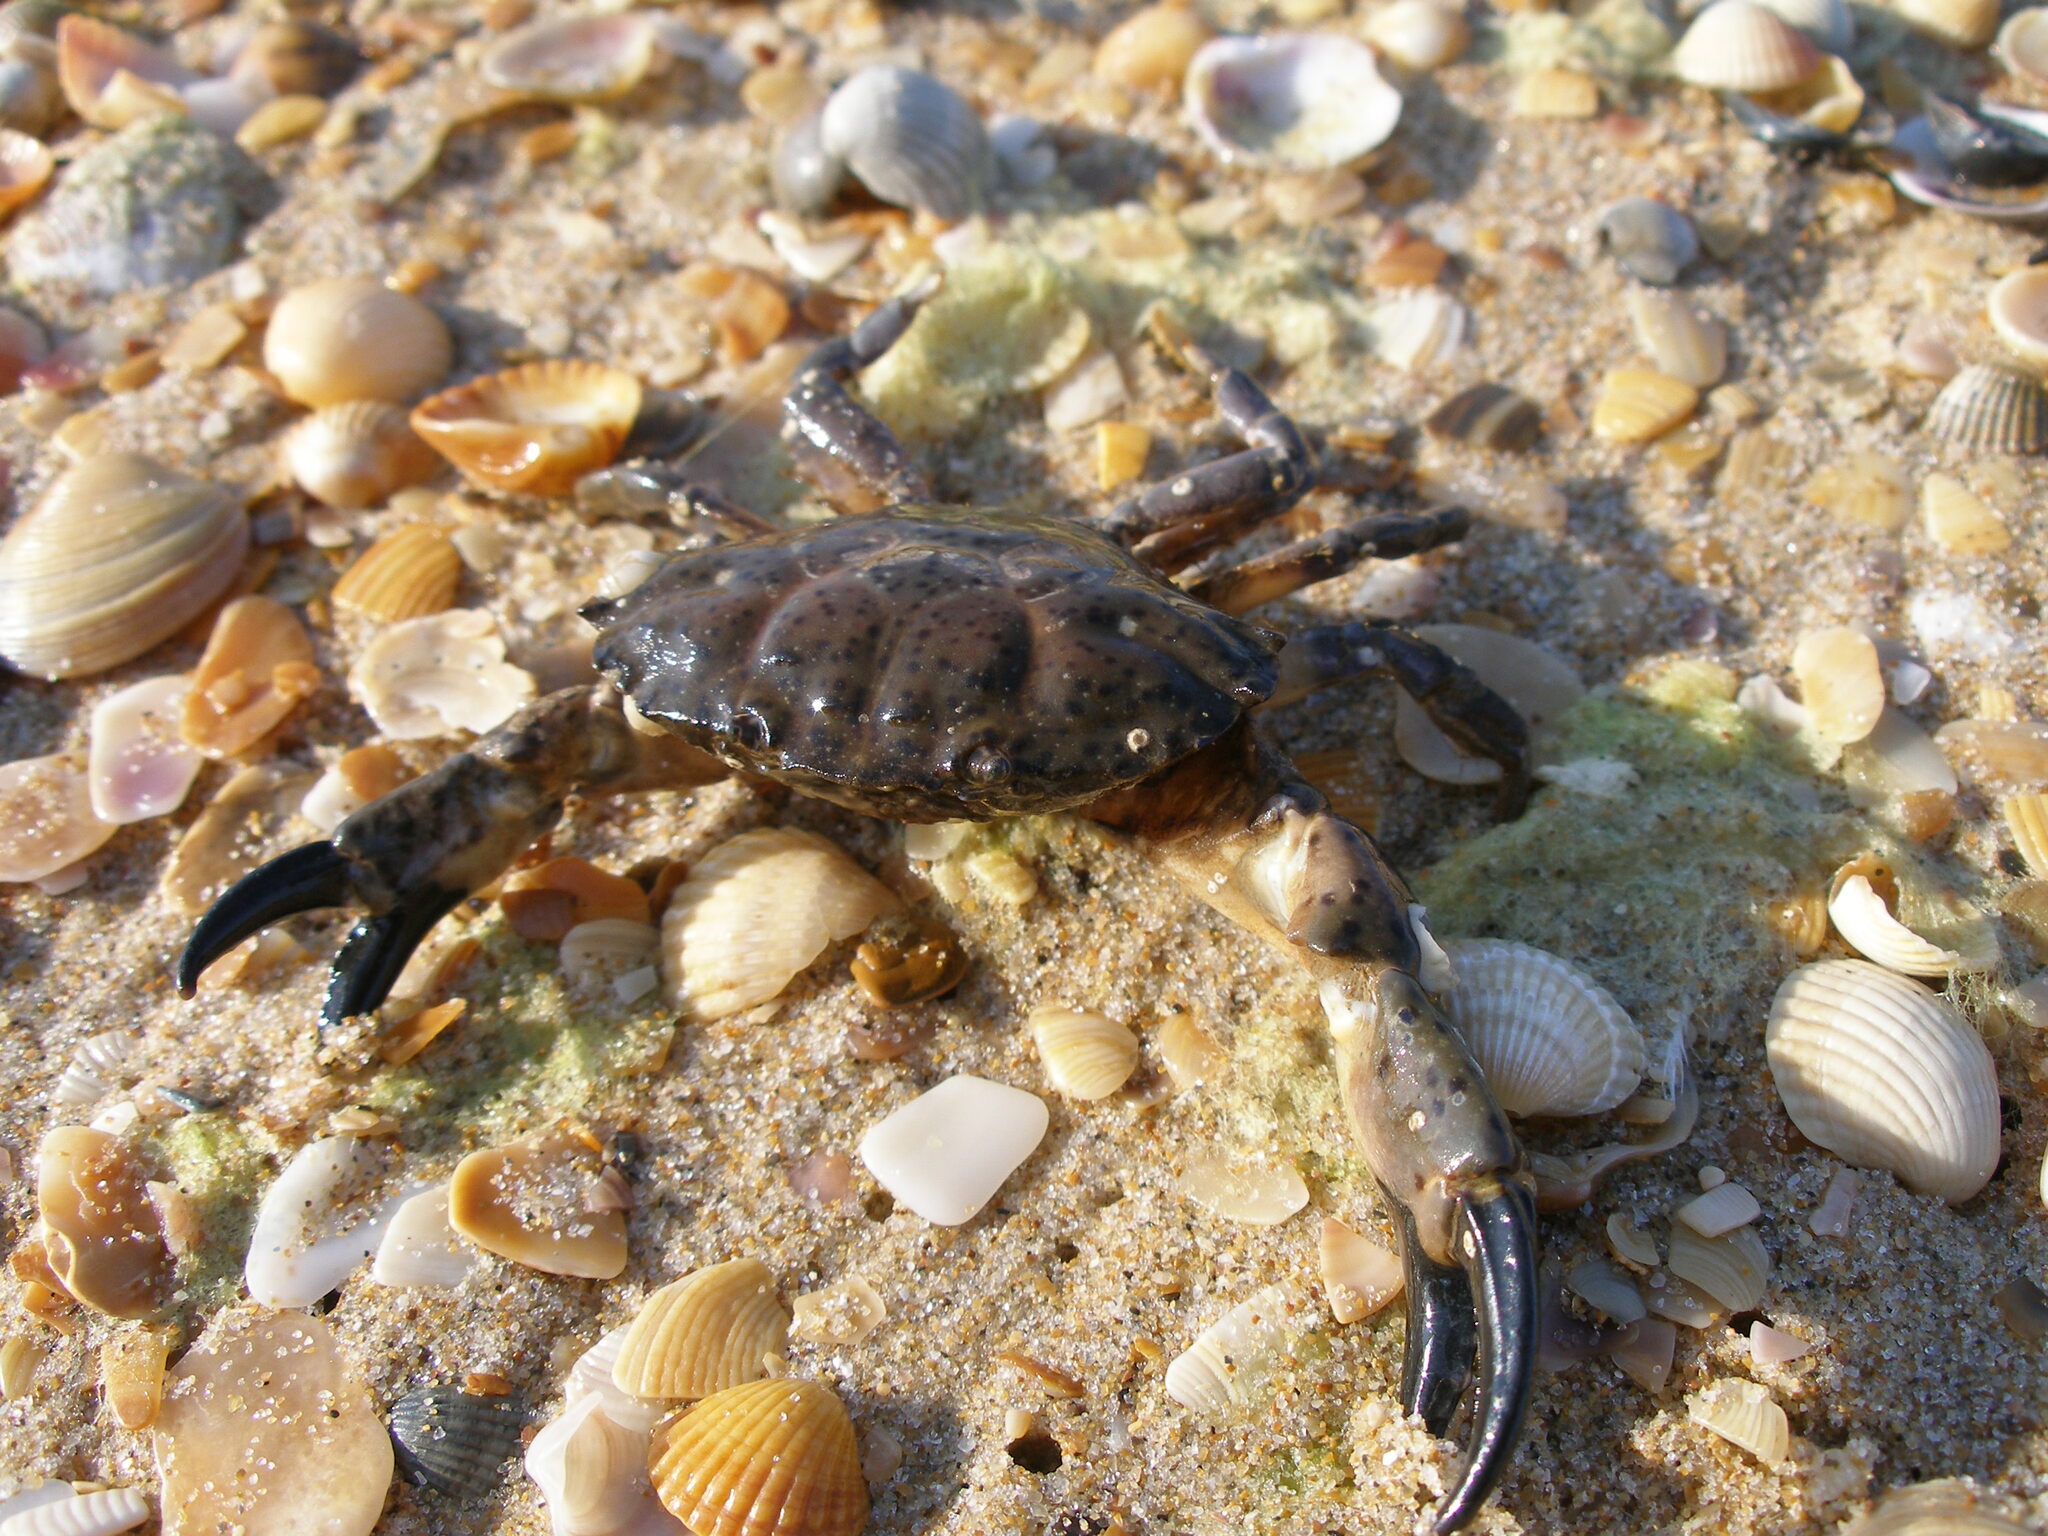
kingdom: Animalia
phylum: Arthropoda
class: Malacostraca
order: Decapoda
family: Xanthidae
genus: Xantho
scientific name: Xantho poressa
